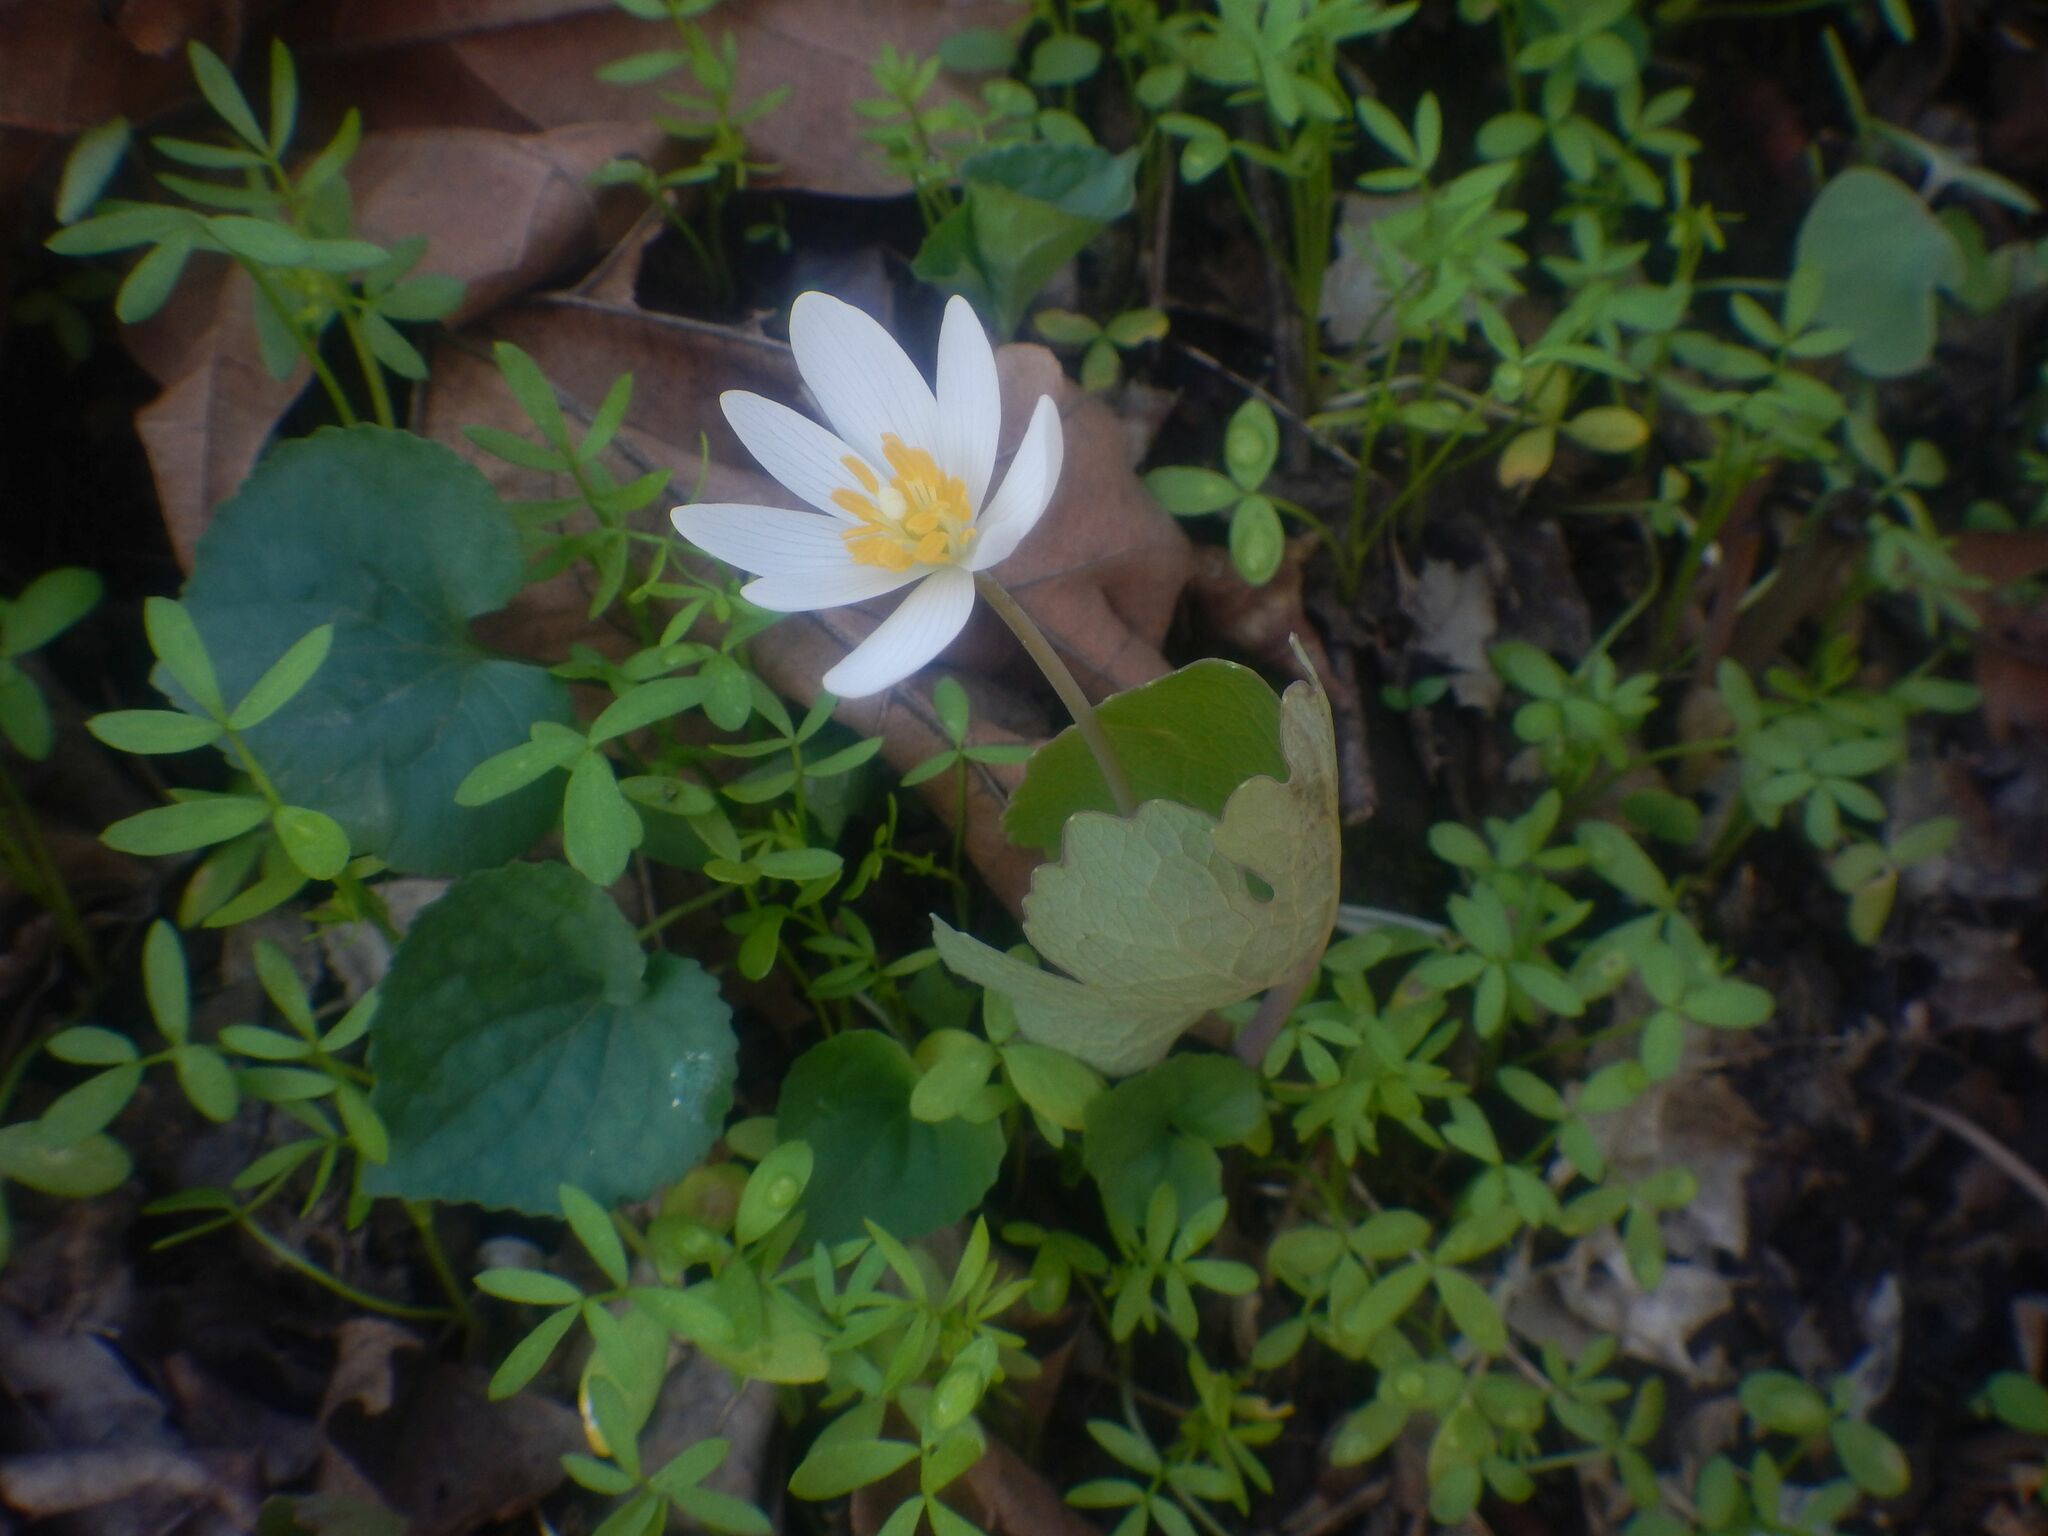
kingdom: Plantae
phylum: Tracheophyta
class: Magnoliopsida
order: Ranunculales
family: Papaveraceae
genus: Sanguinaria
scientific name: Sanguinaria canadensis
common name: Bloodroot
